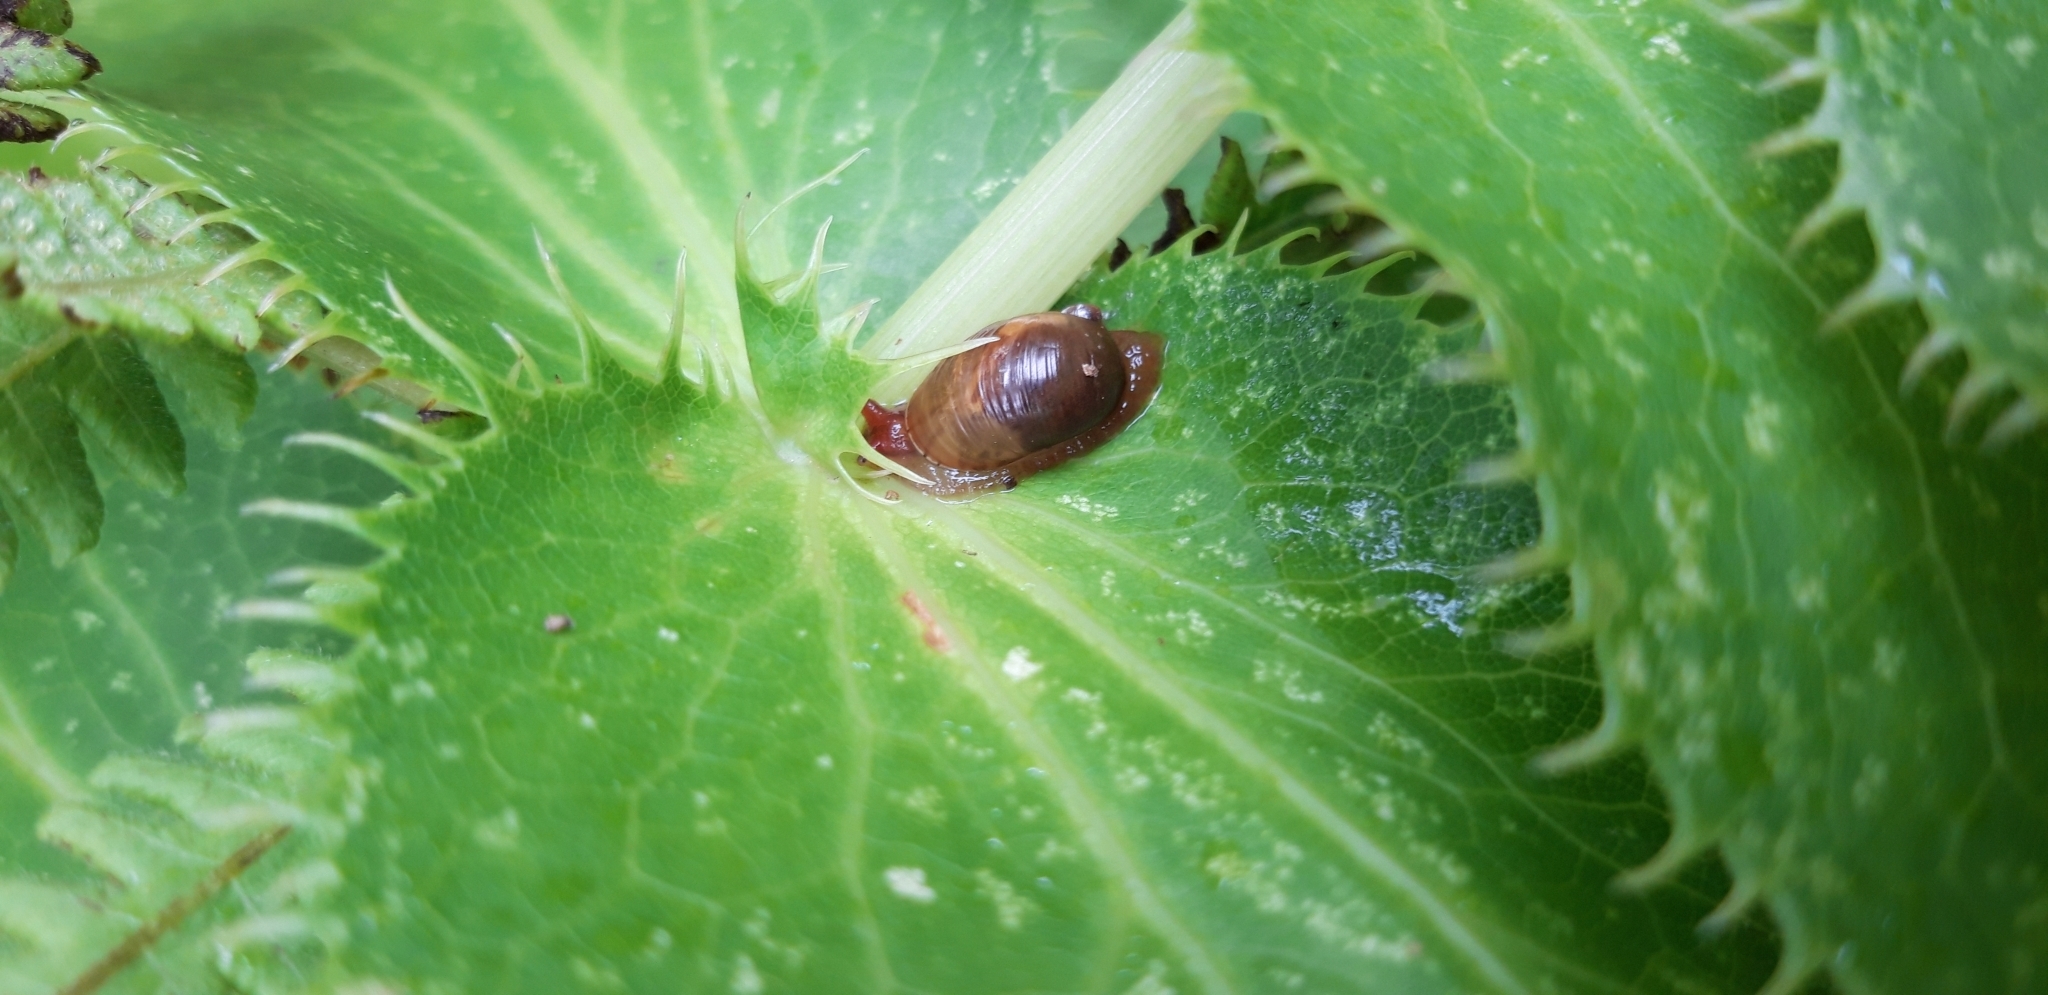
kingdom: Animalia
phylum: Mollusca
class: Gastropoda
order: Stylommatophora
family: Succineidae
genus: Helisiga
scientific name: Helisiga sanctaehelenae
